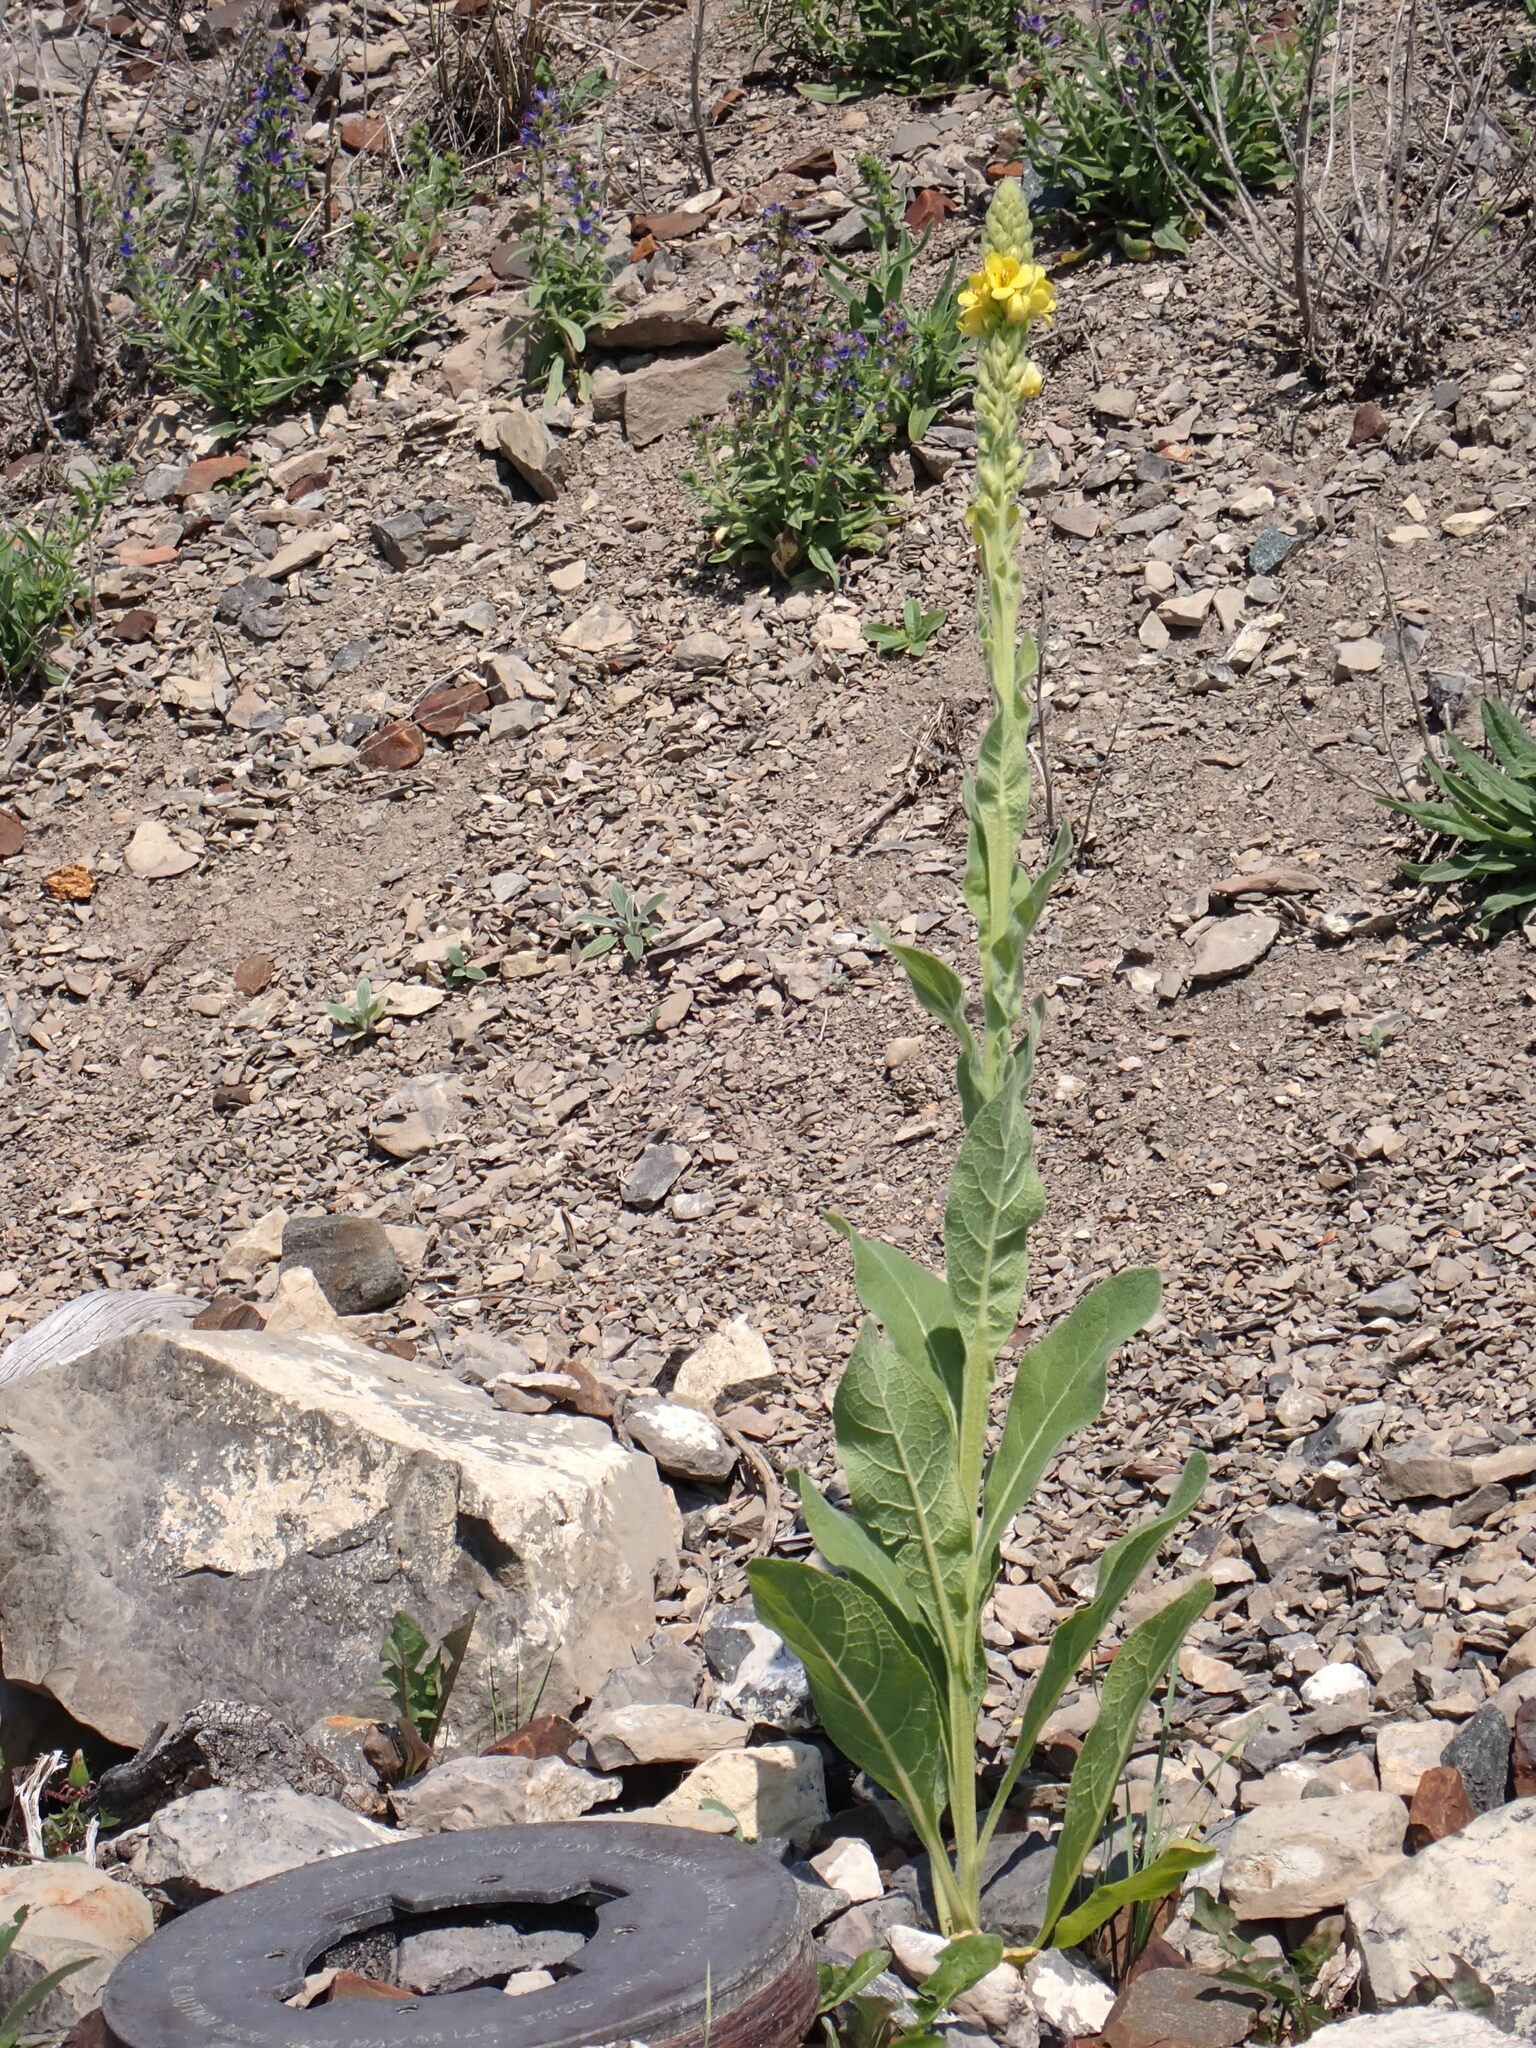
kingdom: Plantae
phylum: Tracheophyta
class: Magnoliopsida
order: Lamiales
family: Scrophulariaceae
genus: Verbascum
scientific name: Verbascum thapsus
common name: Common mullein
